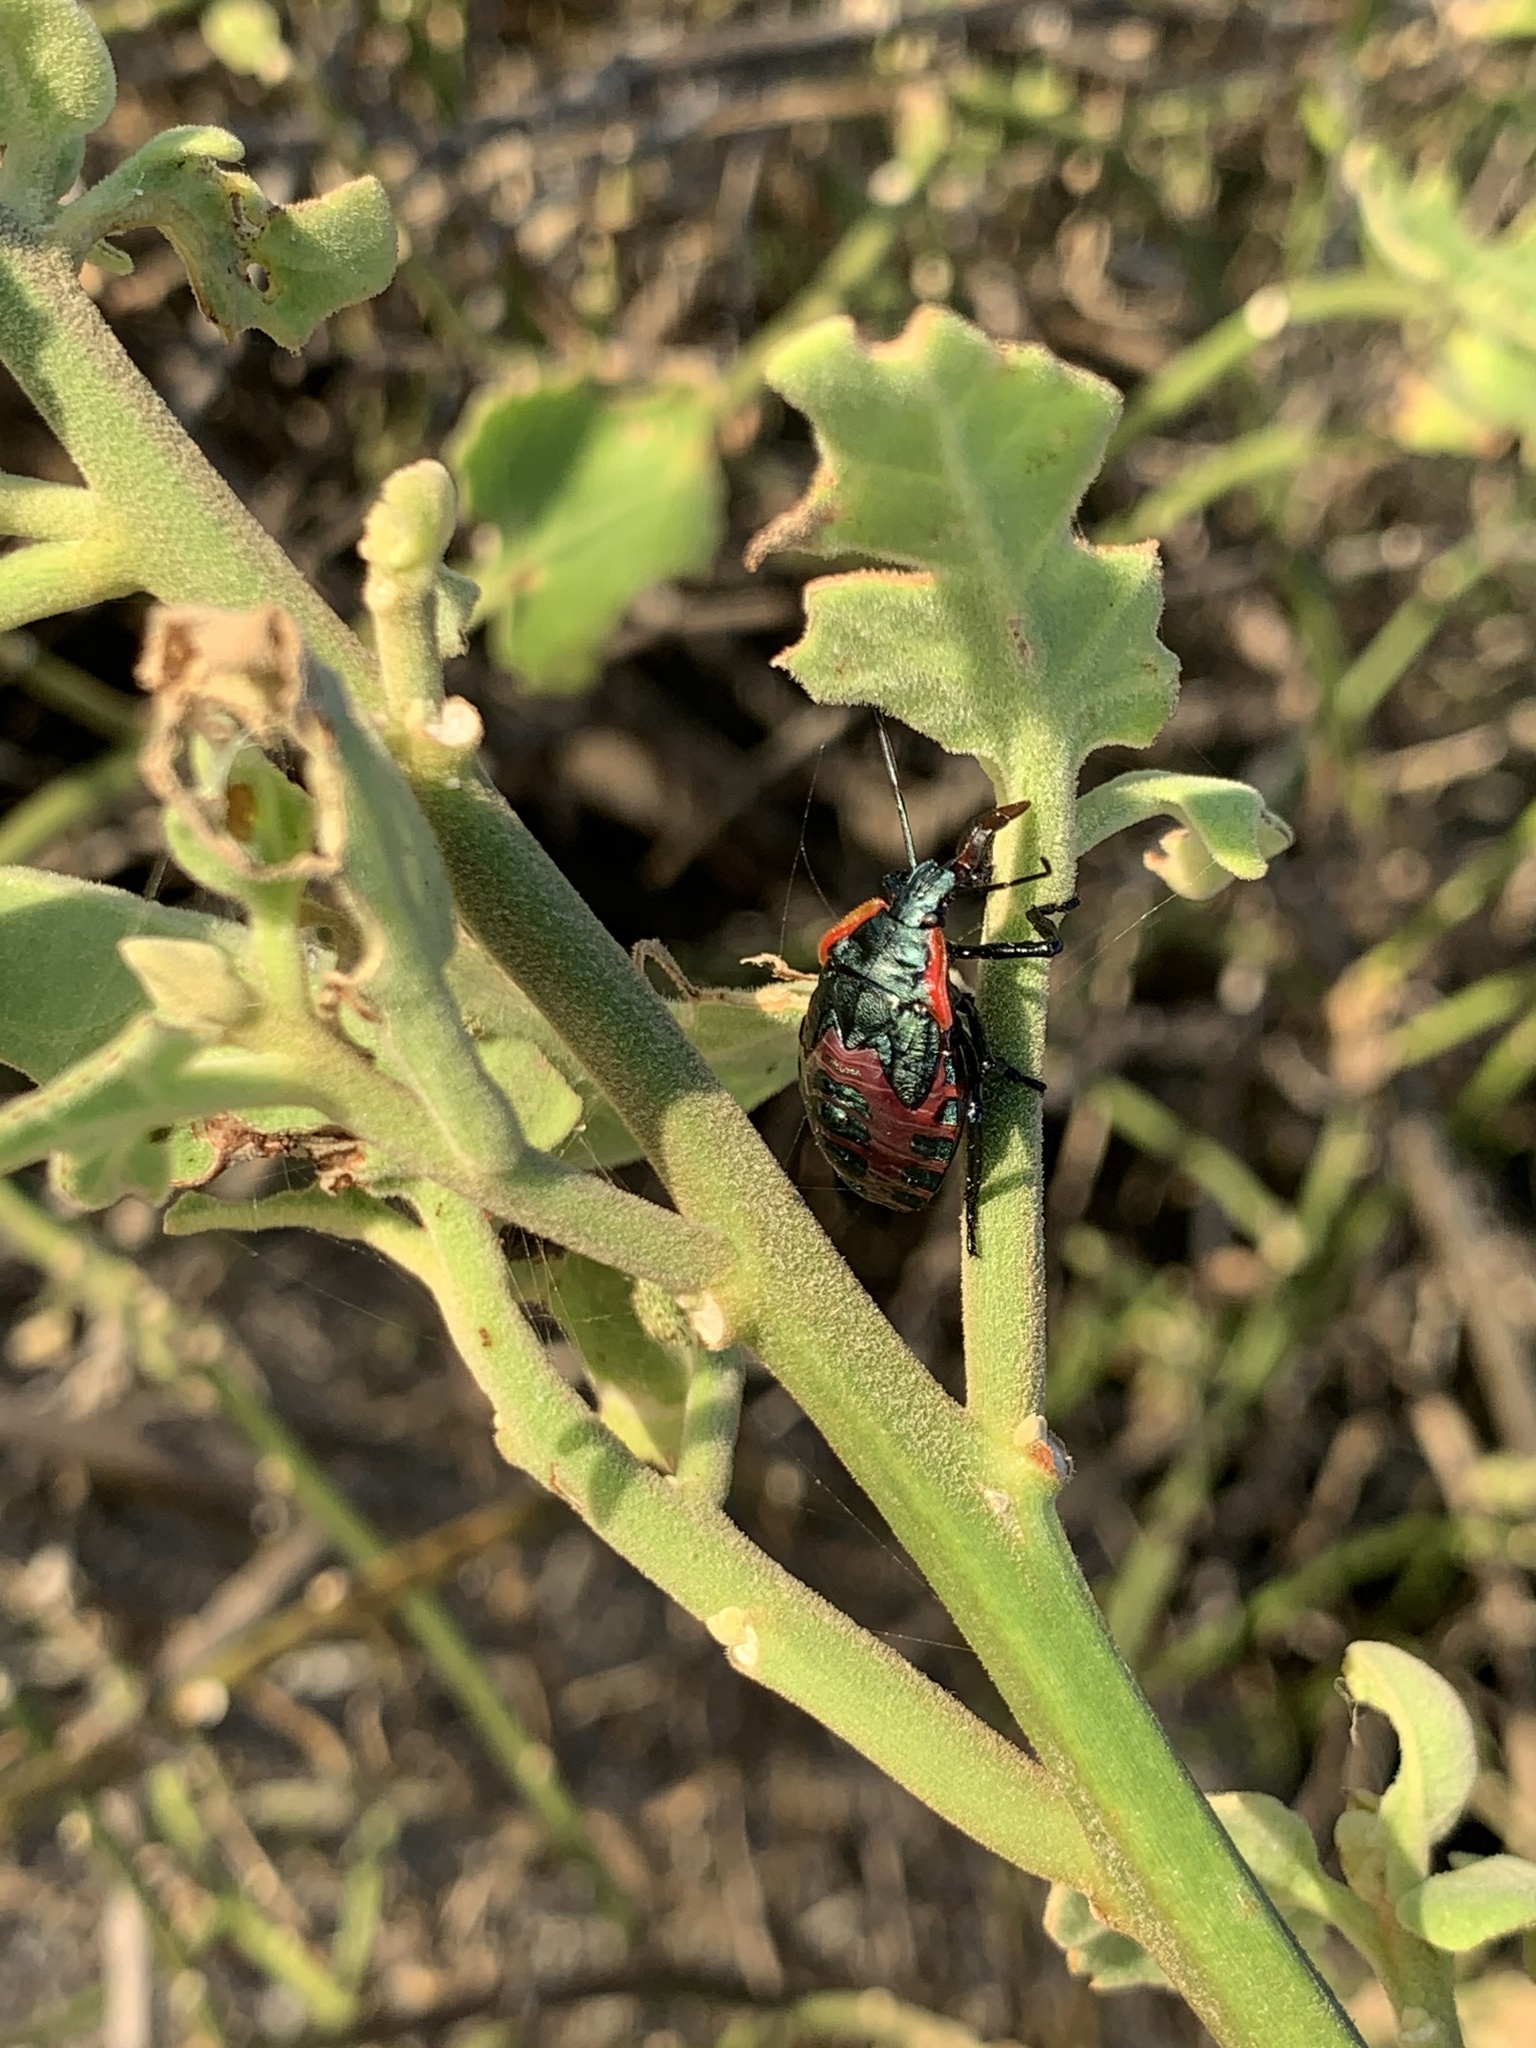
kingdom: Animalia
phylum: Arthropoda
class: Insecta
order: Hemiptera
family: Pentatomidae
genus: Alcaeorrhynchus
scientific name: Alcaeorrhynchus grandis
